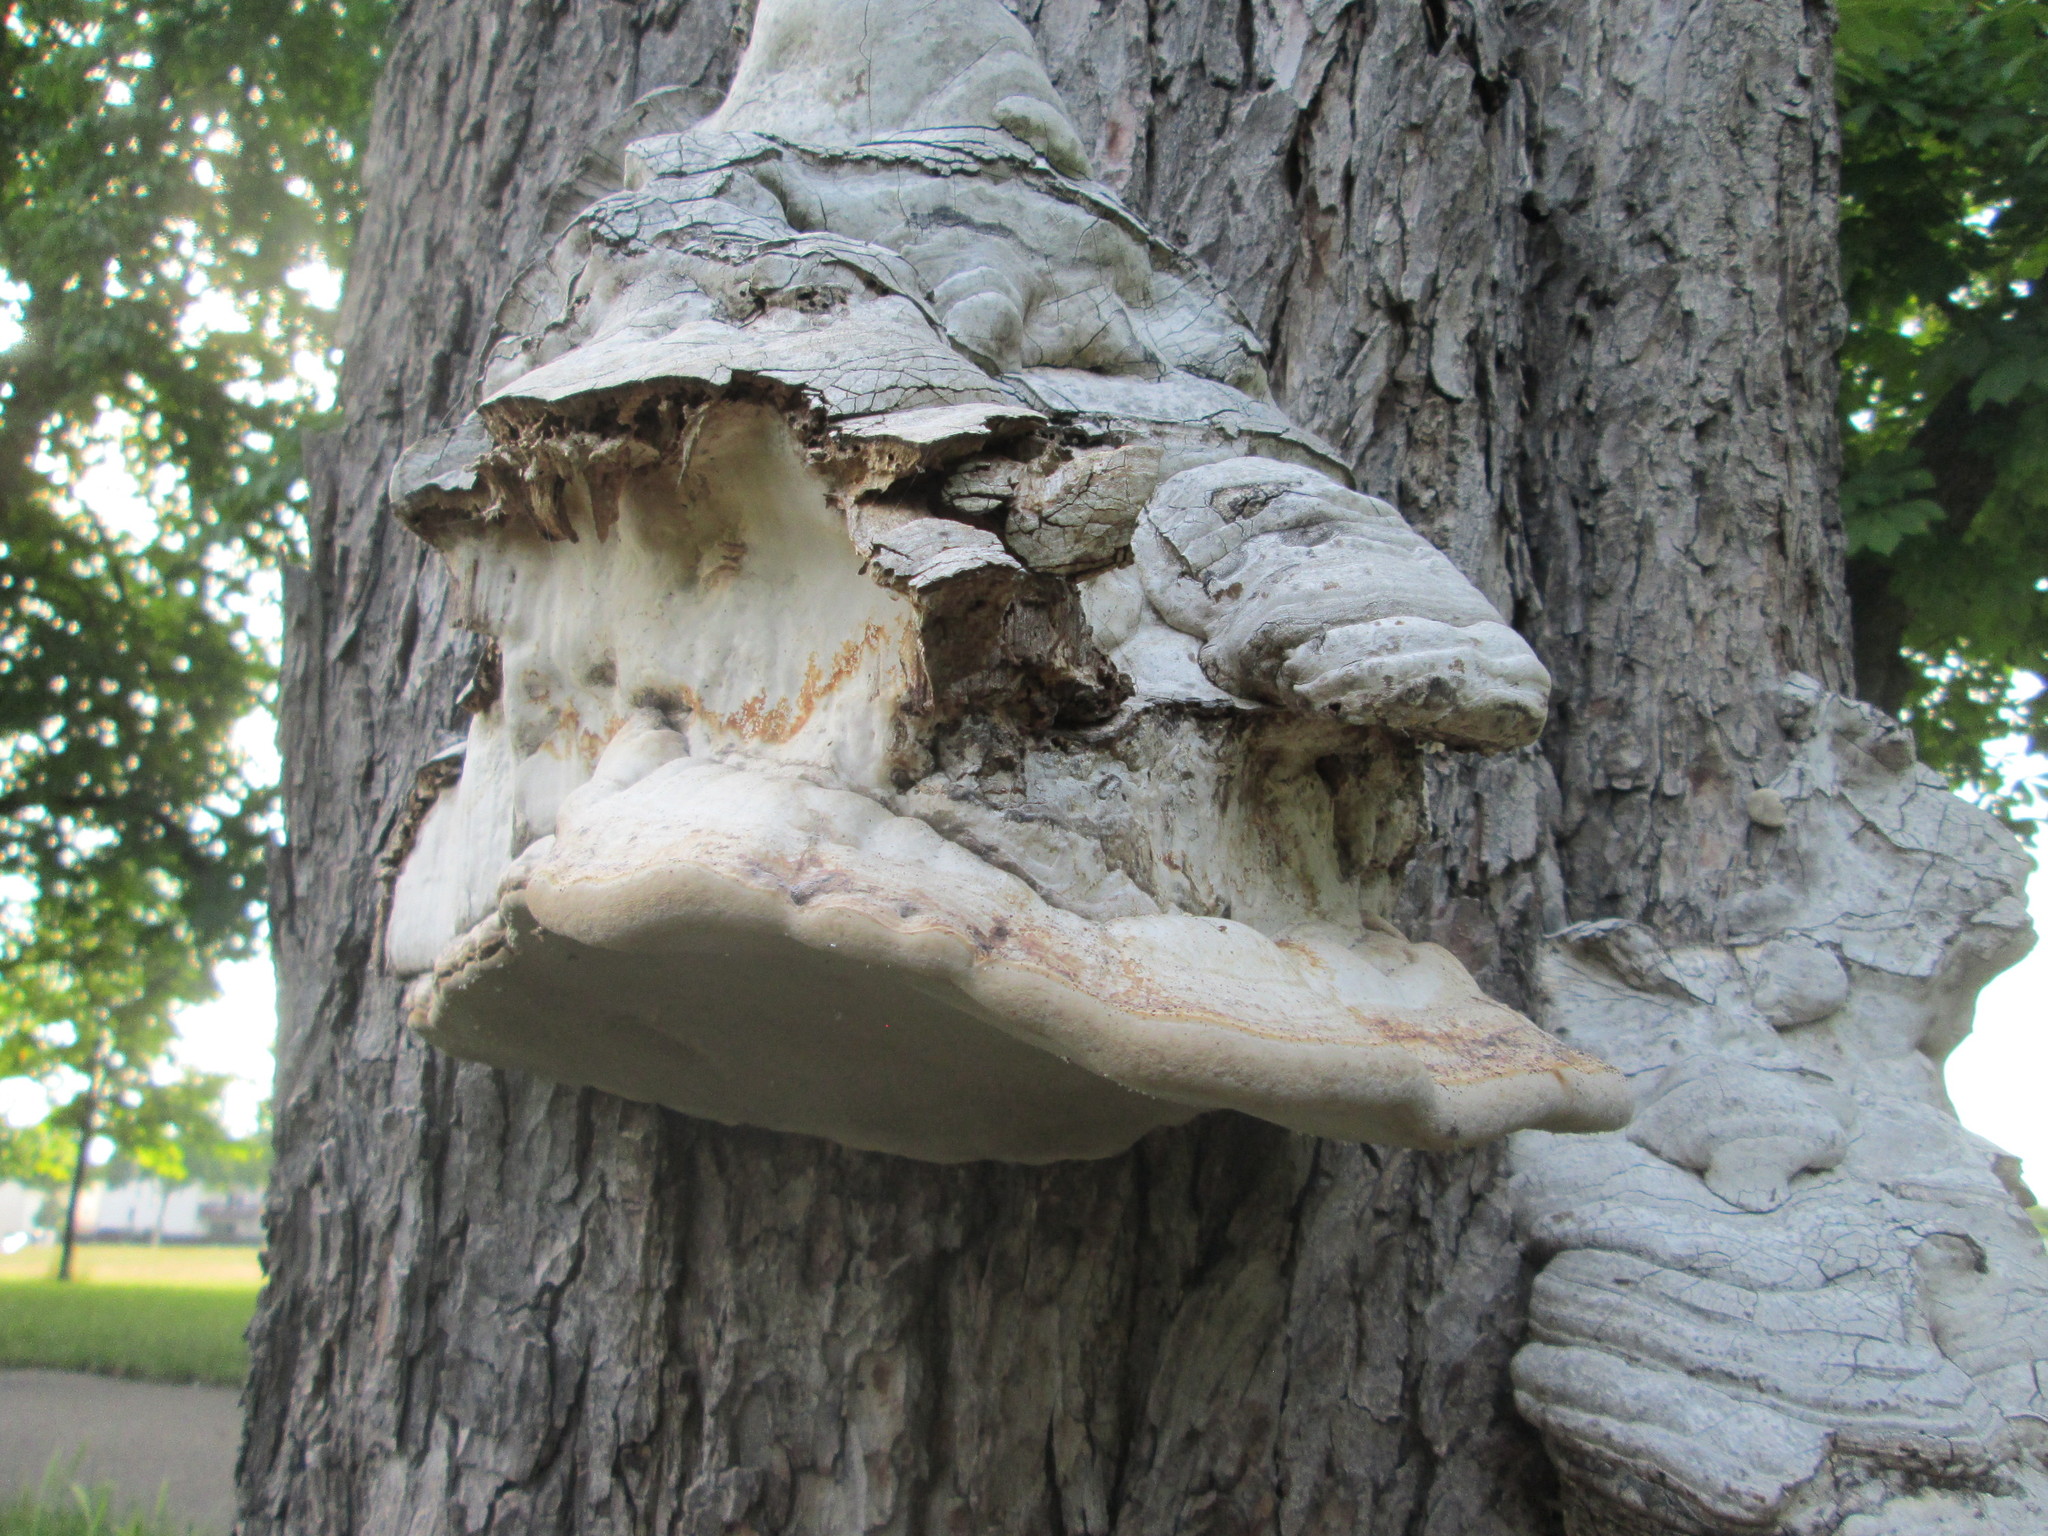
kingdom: Fungi
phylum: Basidiomycota
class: Agaricomycetes
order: Polyporales
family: Polyporaceae
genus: Fomes
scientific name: Fomes fomentarius
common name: Hoof fungus
